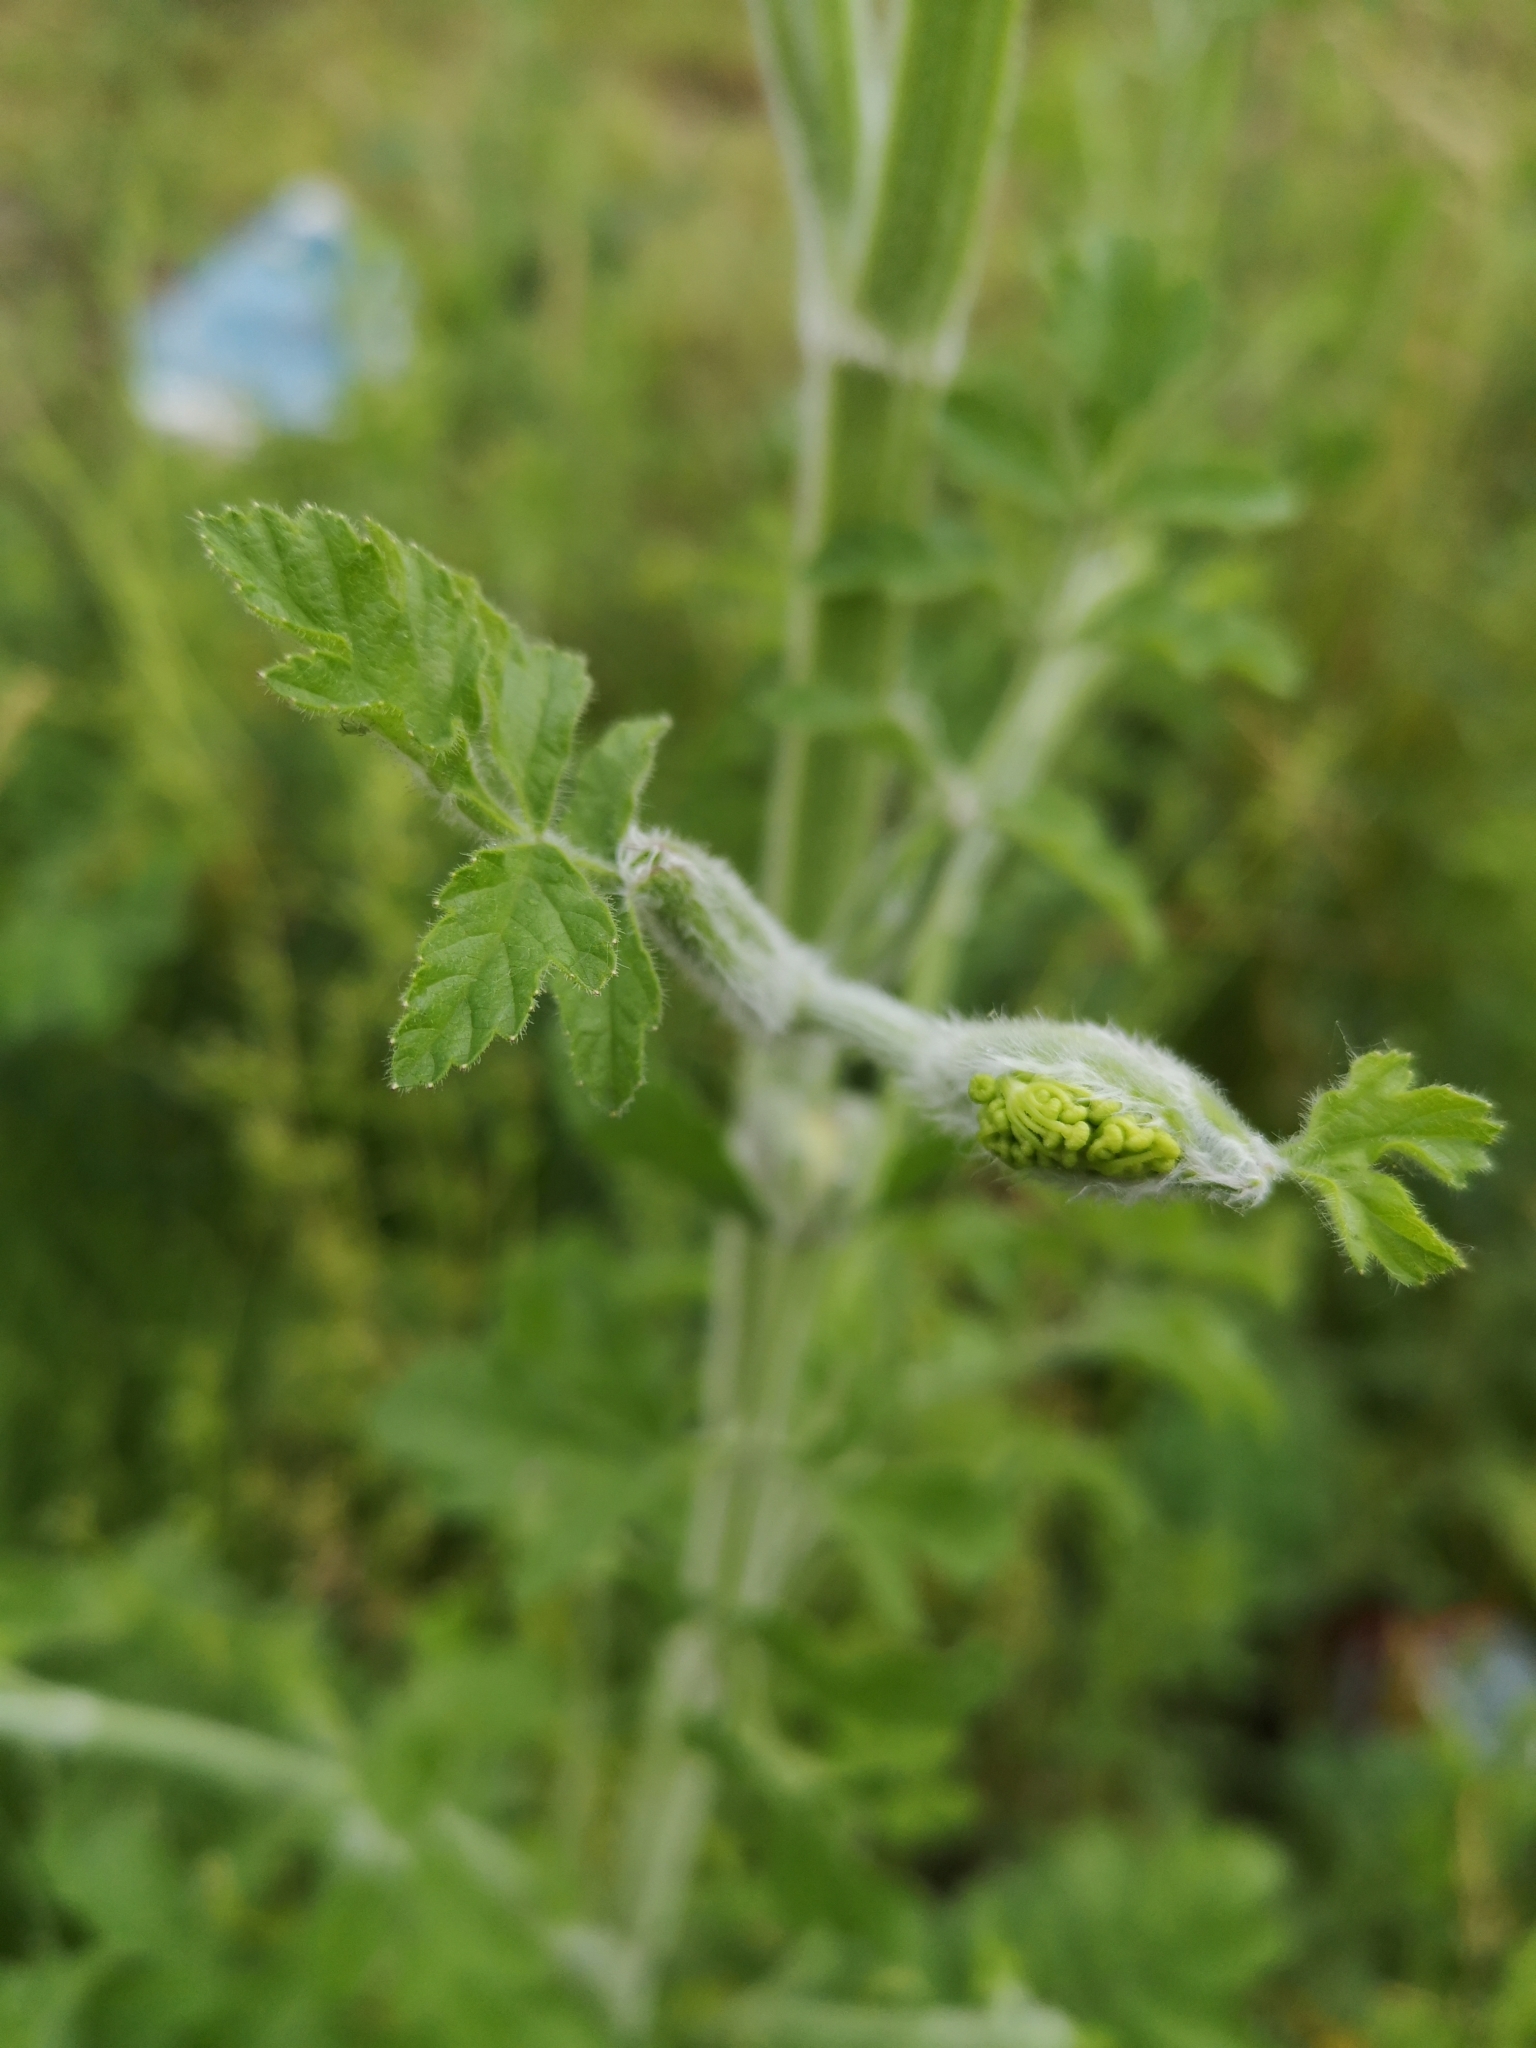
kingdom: Plantae
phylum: Tracheophyta
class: Magnoliopsida
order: Apiales
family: Apiaceae
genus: Pastinaca
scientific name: Pastinaca sativa
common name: Wild parsnip
